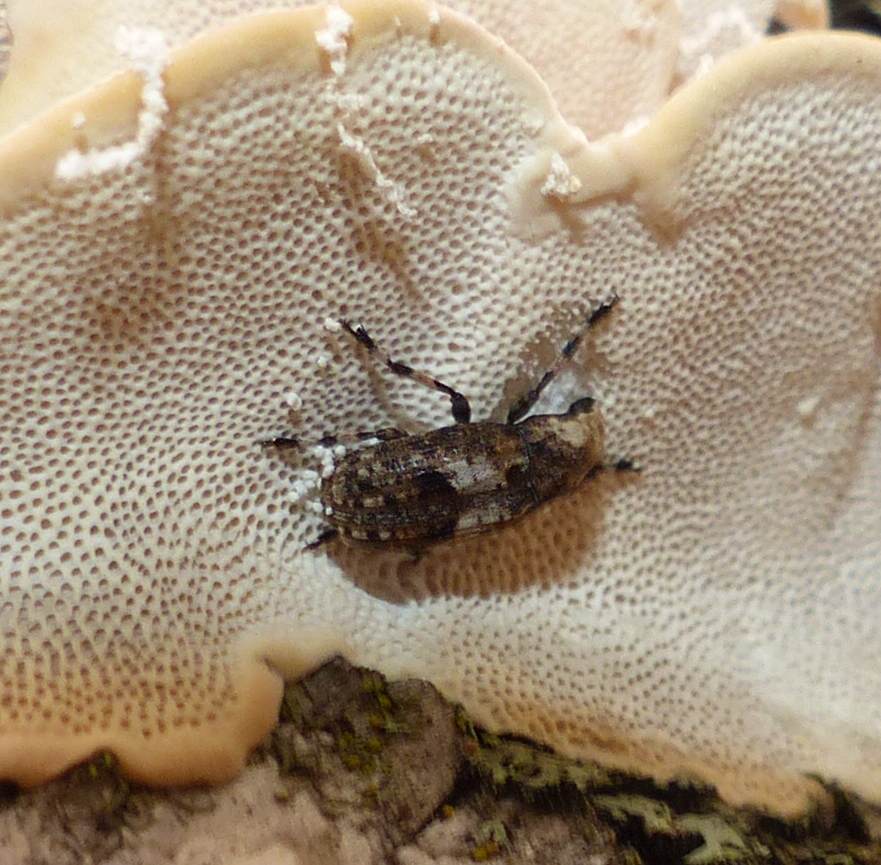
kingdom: Animalia
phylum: Arthropoda
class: Insecta
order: Coleoptera
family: Anthribidae
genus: Euparius
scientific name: Euparius marmoreus
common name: Marbled fungus weevil
